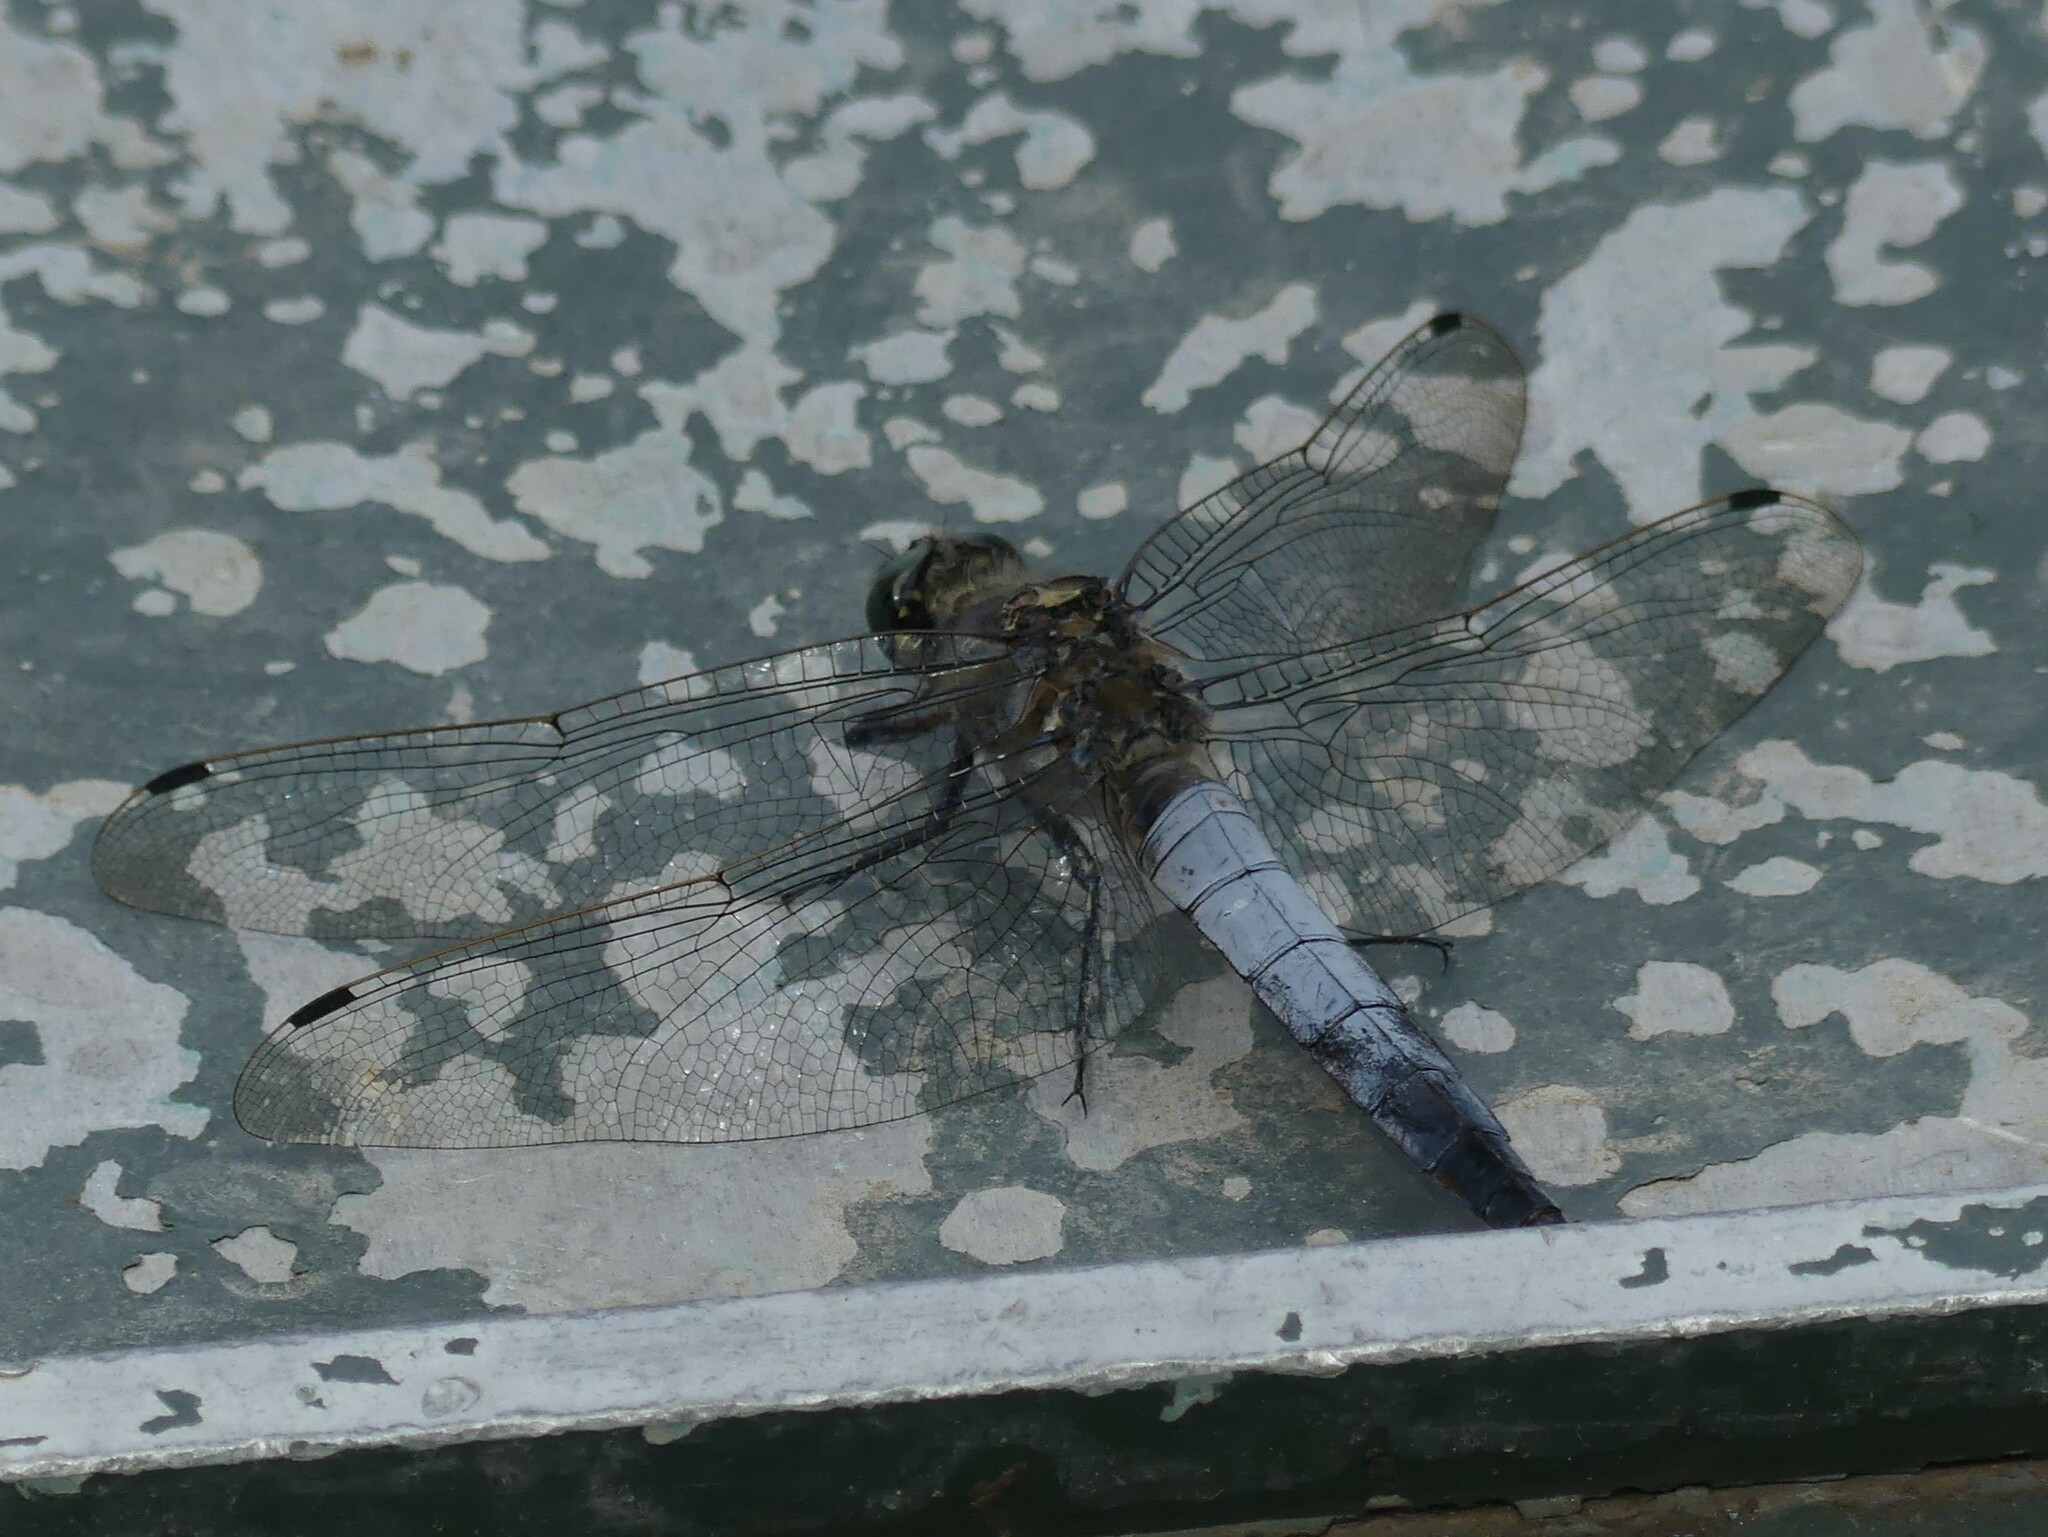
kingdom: Animalia
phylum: Arthropoda
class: Insecta
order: Odonata
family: Libellulidae
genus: Orthetrum
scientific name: Orthetrum cancellatum
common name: Black-tailed skimmer
